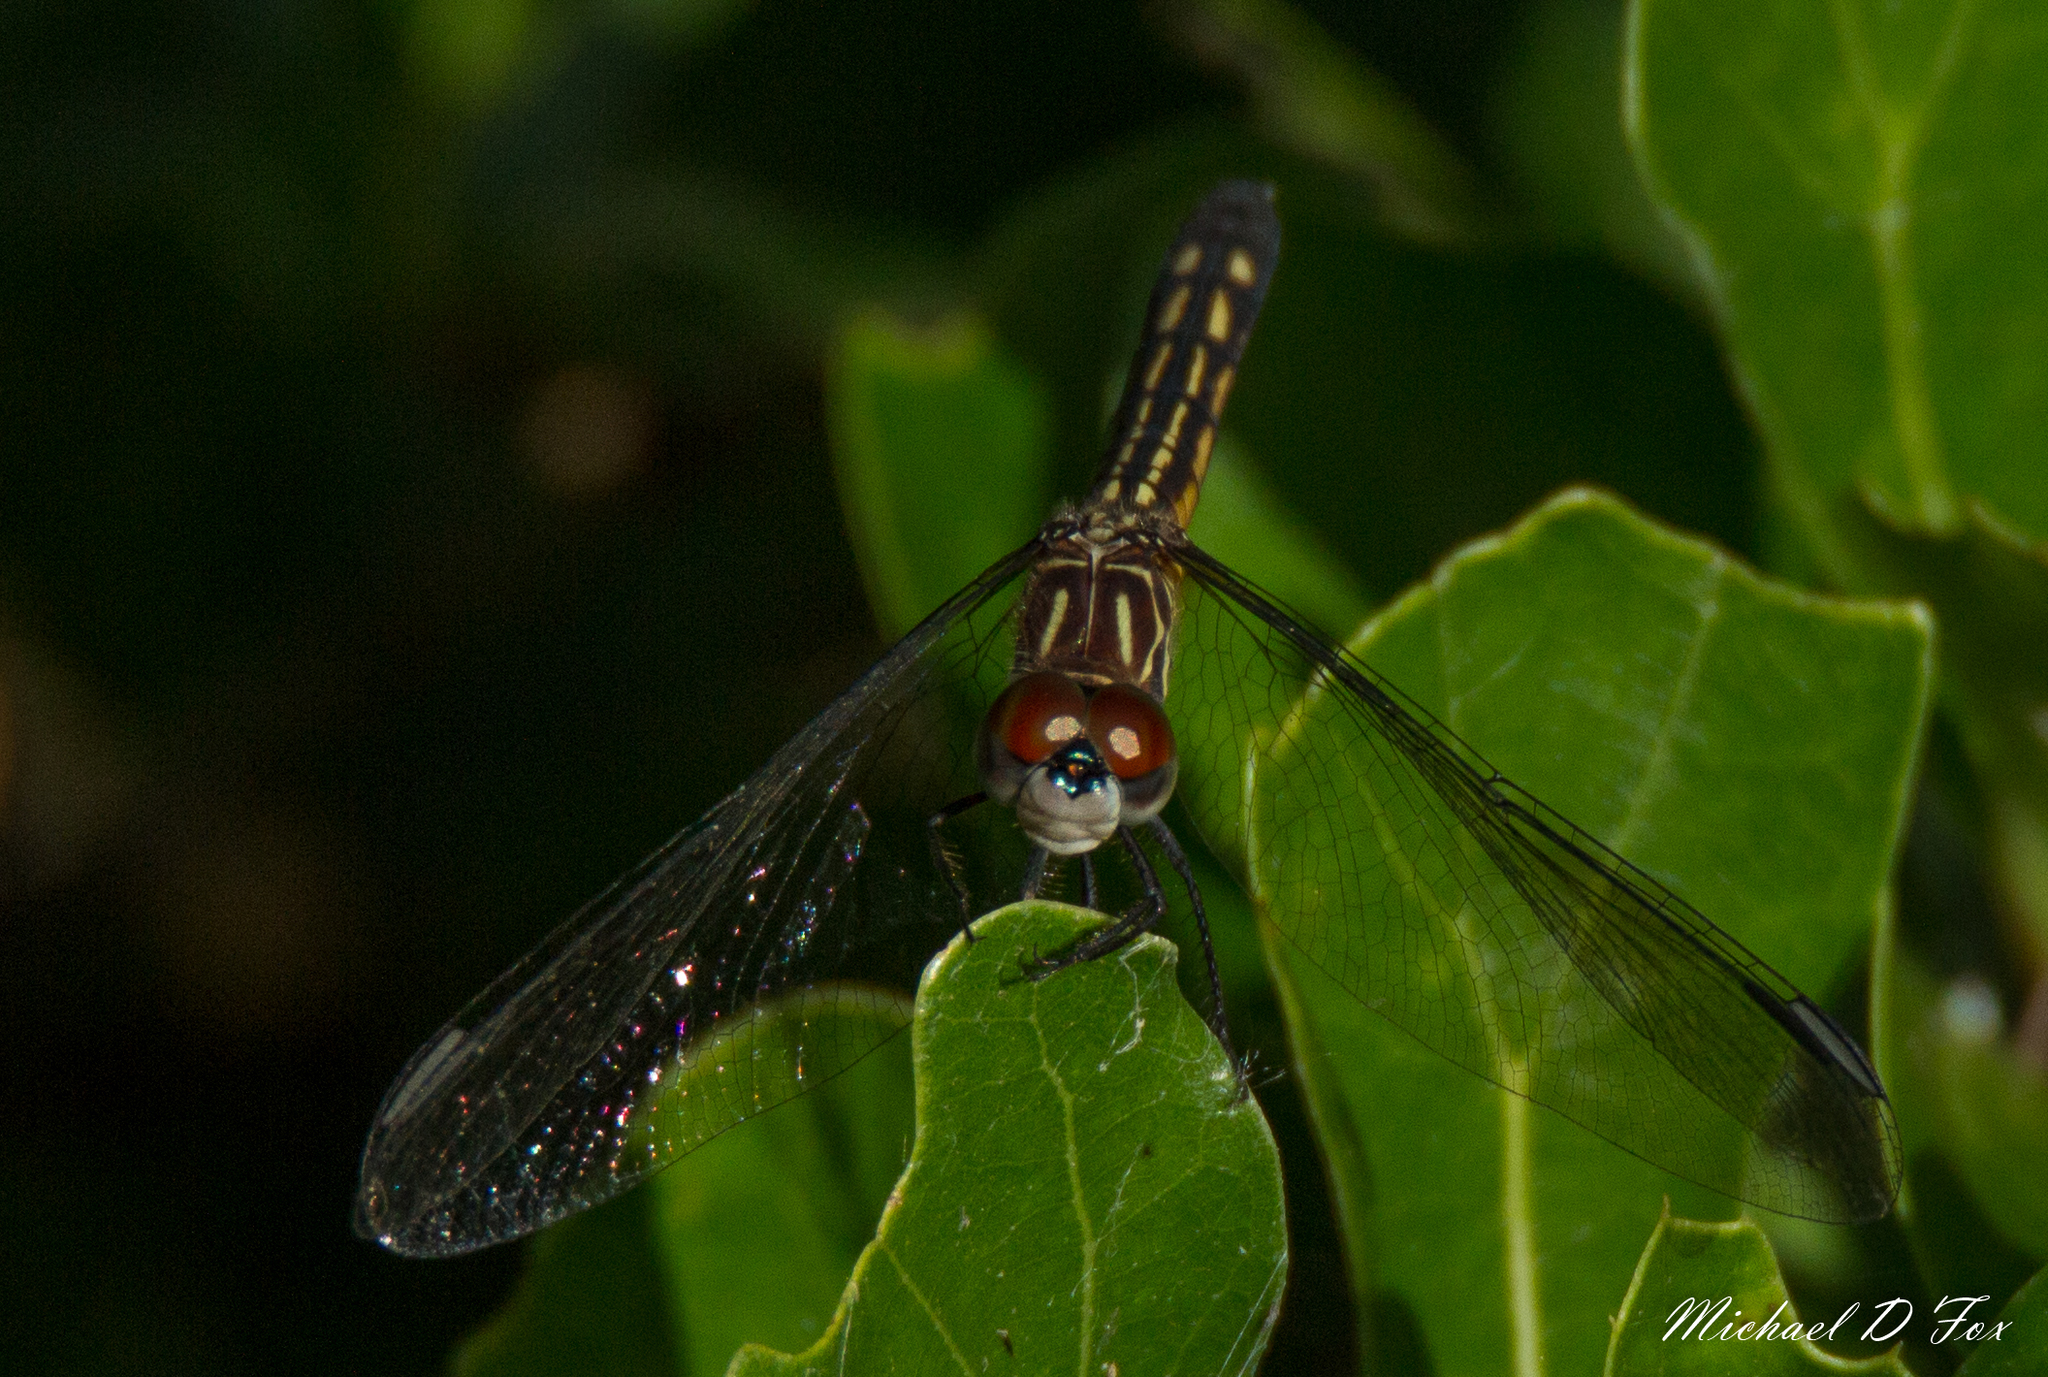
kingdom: Animalia
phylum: Arthropoda
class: Insecta
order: Odonata
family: Libellulidae
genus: Pachydiplax
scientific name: Pachydiplax longipennis
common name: Blue dasher
